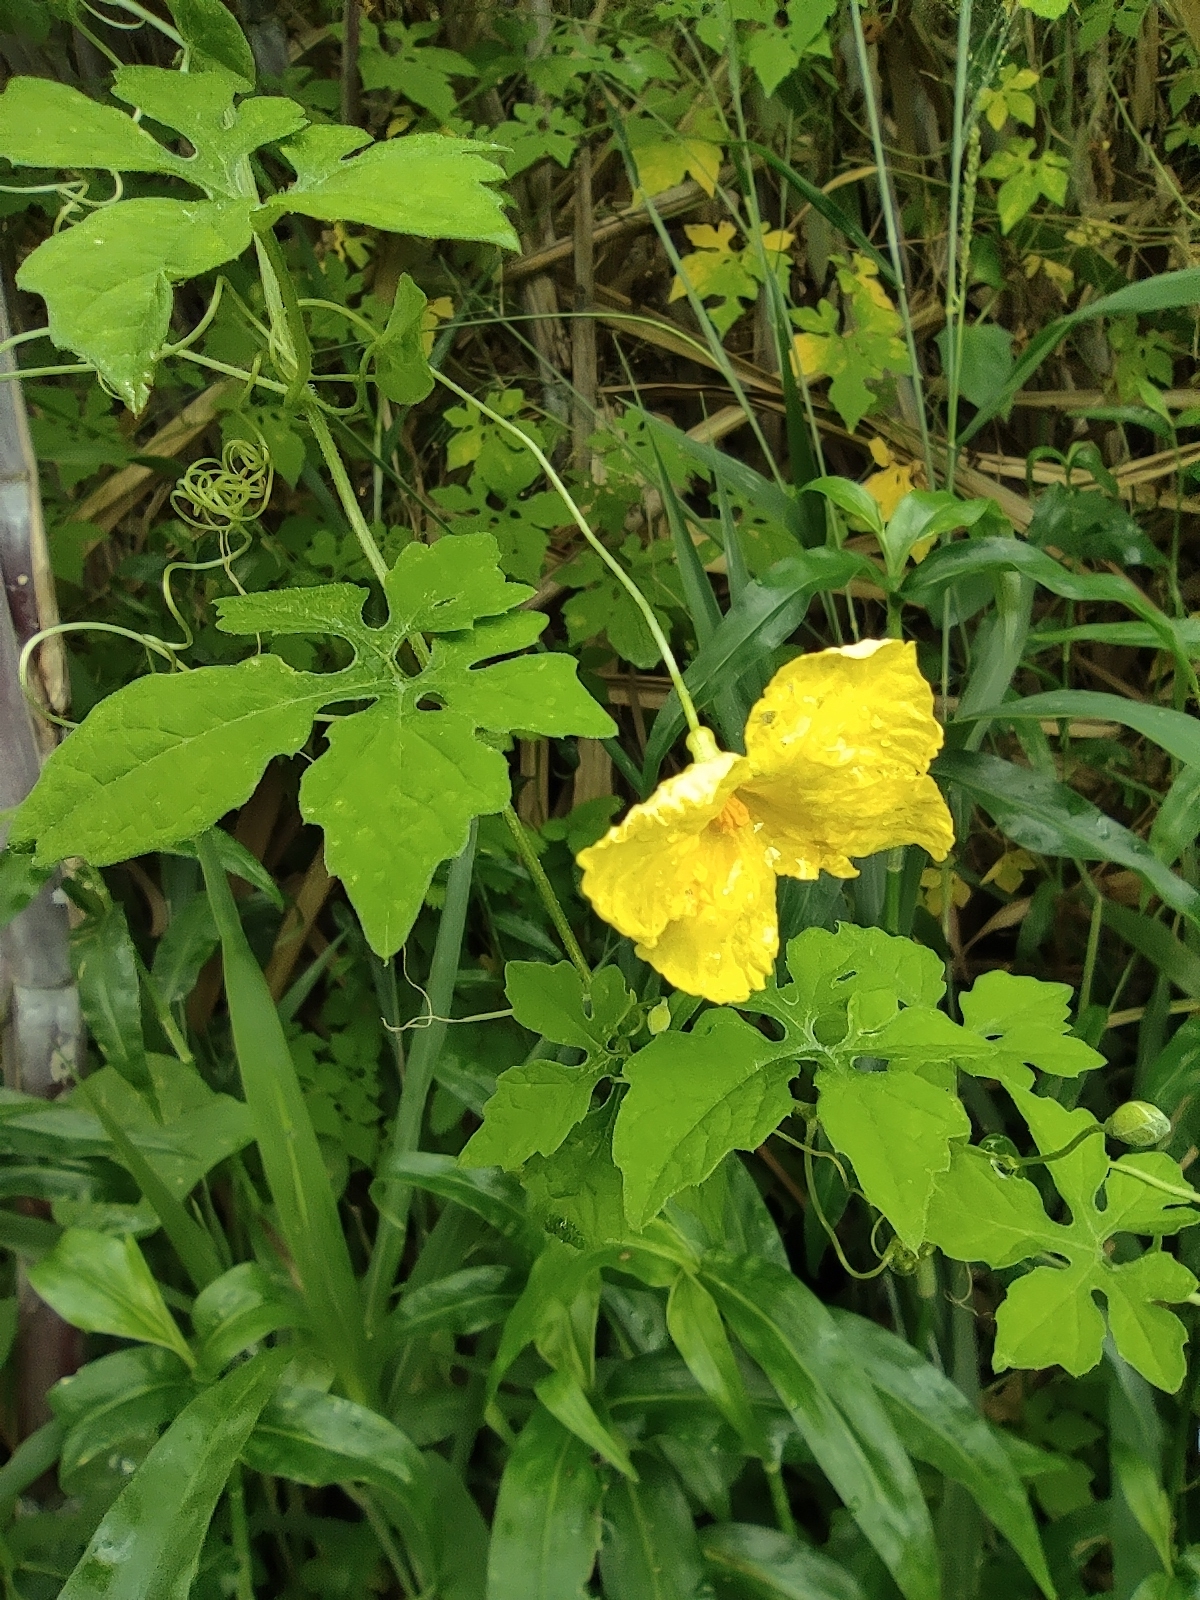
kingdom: Plantae
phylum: Tracheophyta
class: Magnoliopsida
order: Cucurbitales
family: Cucurbitaceae
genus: Momordica
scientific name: Momordica charantia
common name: Balsampear
